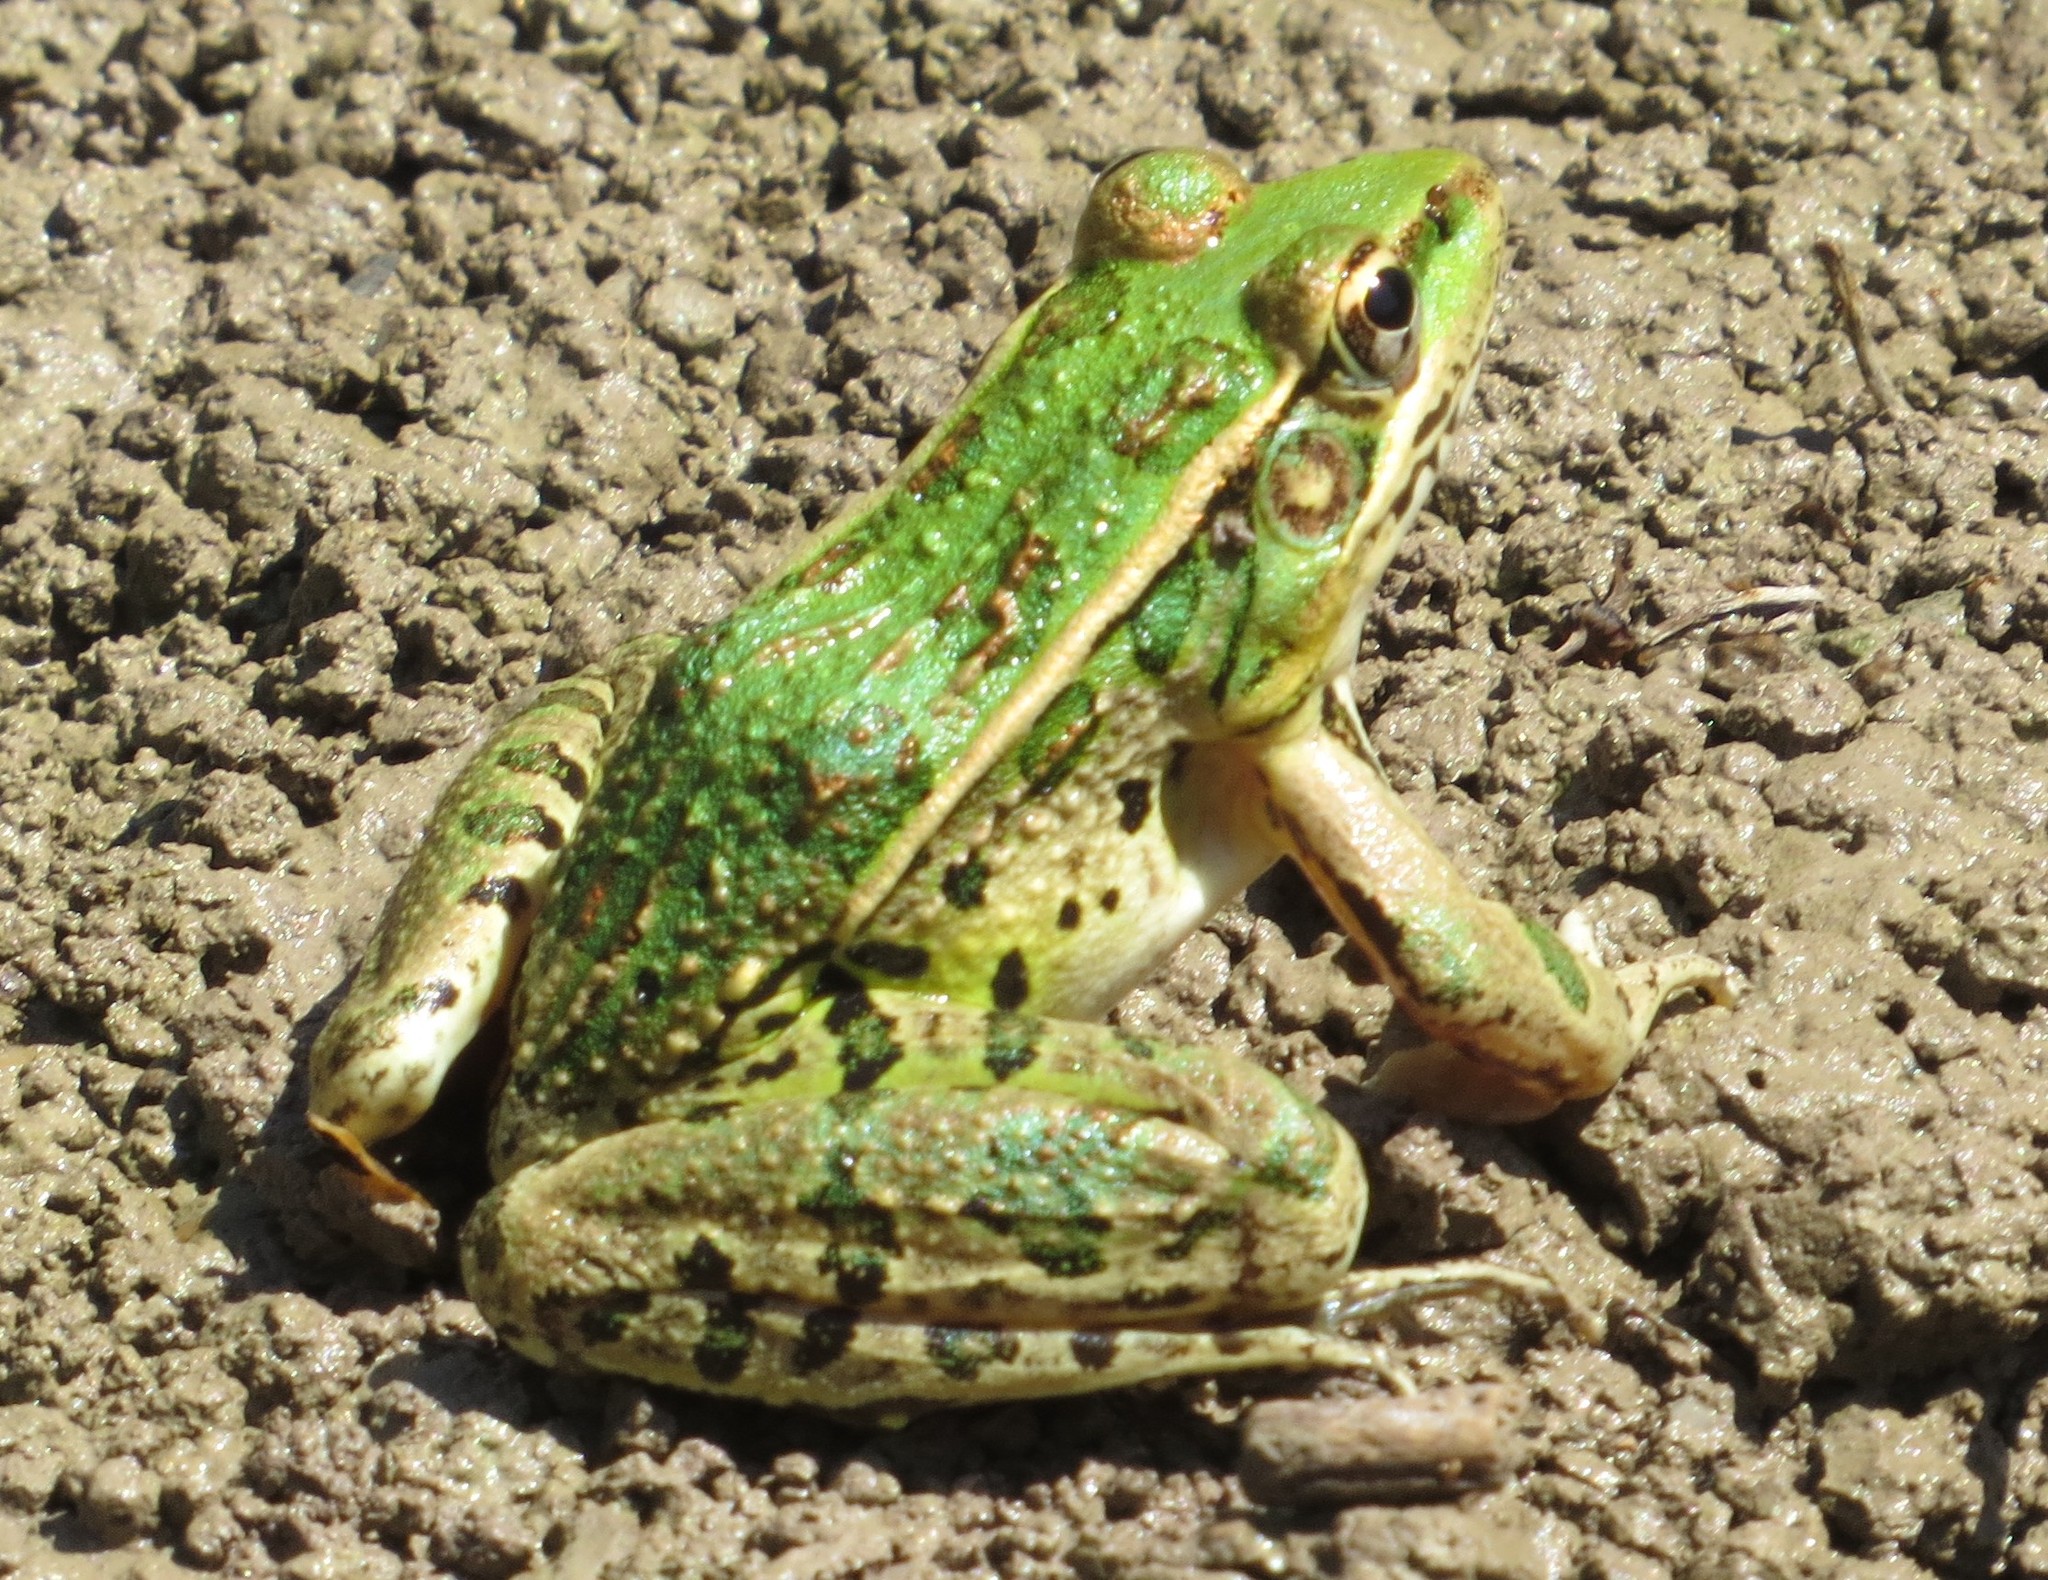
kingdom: Animalia
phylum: Chordata
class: Amphibia
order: Anura
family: Ranidae
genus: Lithobates
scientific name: Lithobates berlandieri
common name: Rio grande leopard frog
